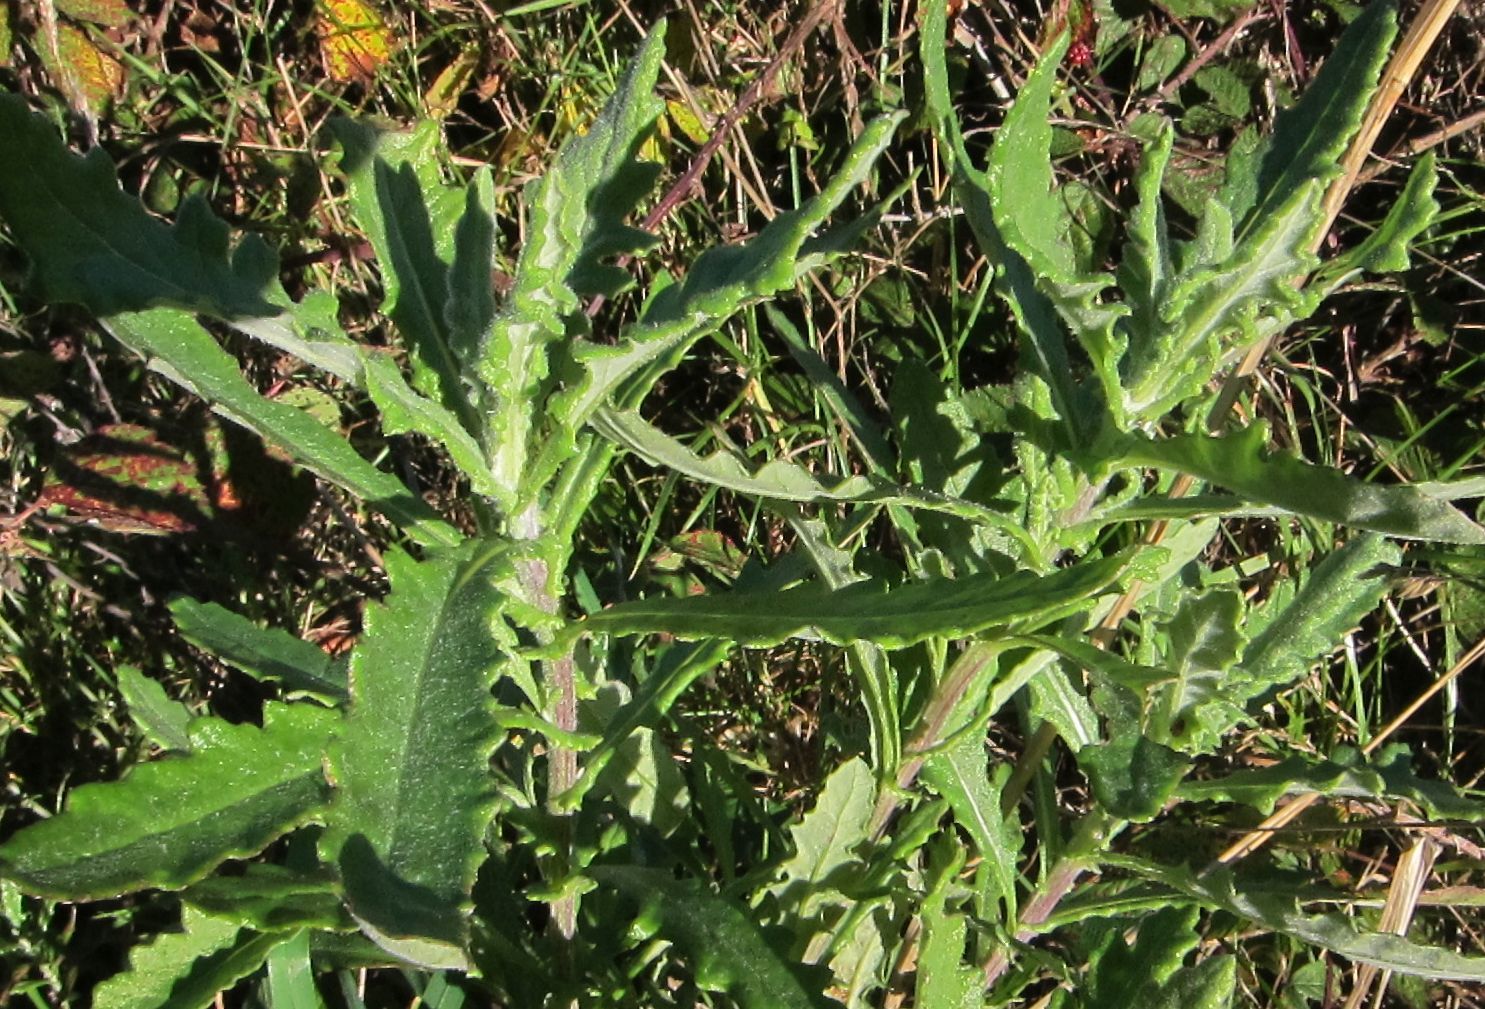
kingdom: Plantae
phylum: Tracheophyta
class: Magnoliopsida
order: Asterales
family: Asteraceae
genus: Senecio
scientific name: Senecio glomeratus
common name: Cutleaf burnweed
